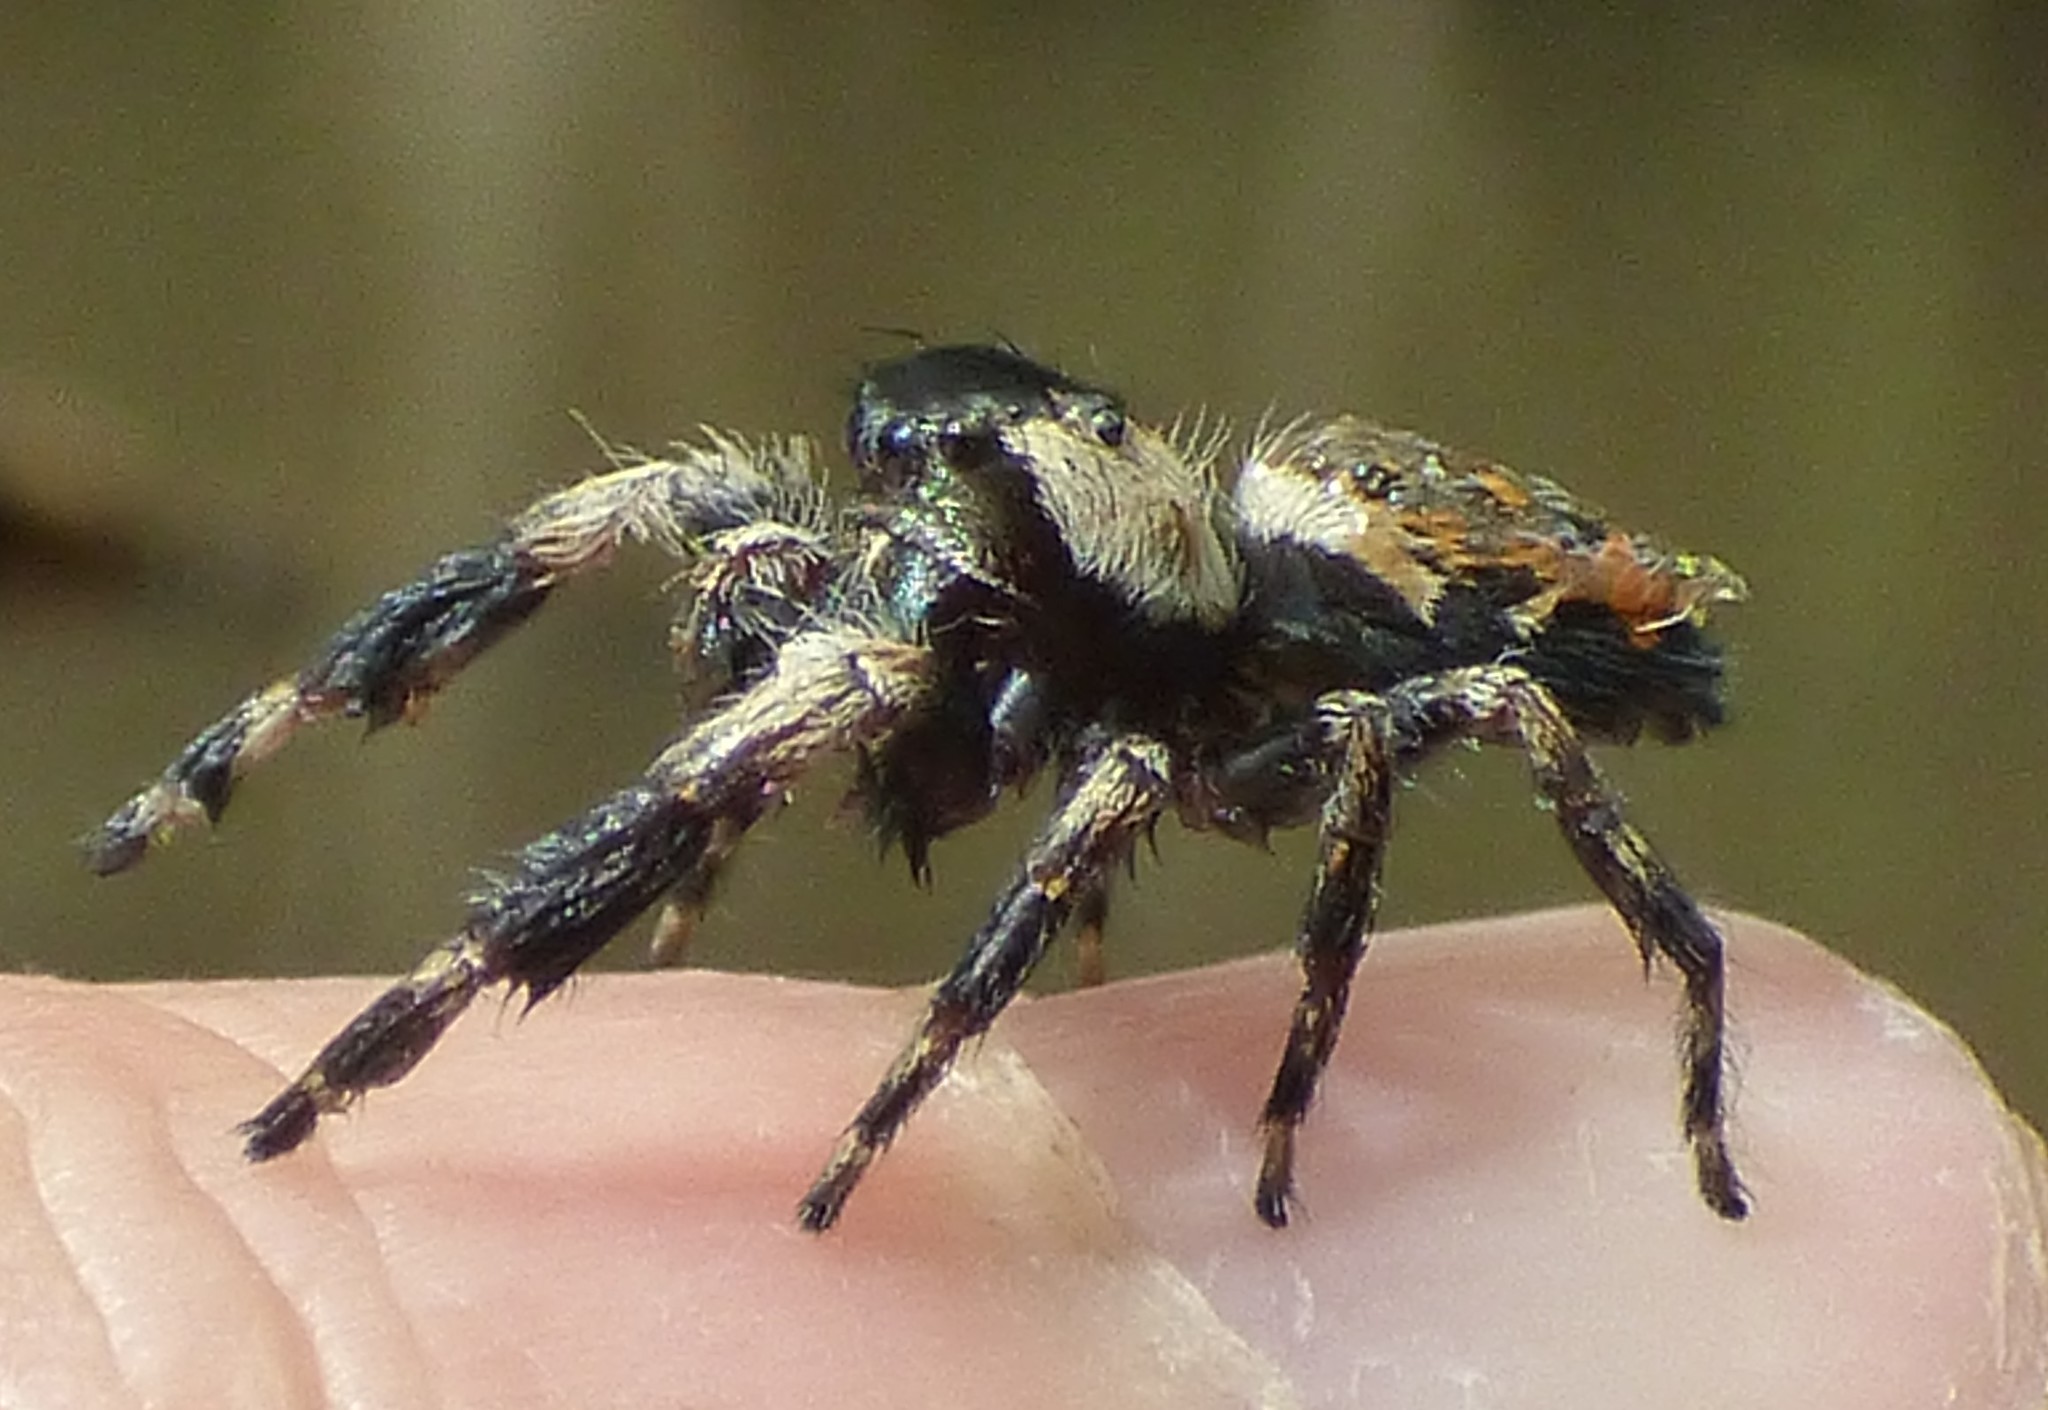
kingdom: Animalia
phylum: Arthropoda
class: Arachnida
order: Araneae
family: Salticidae
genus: Phidippus
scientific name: Phidippus otiosus
